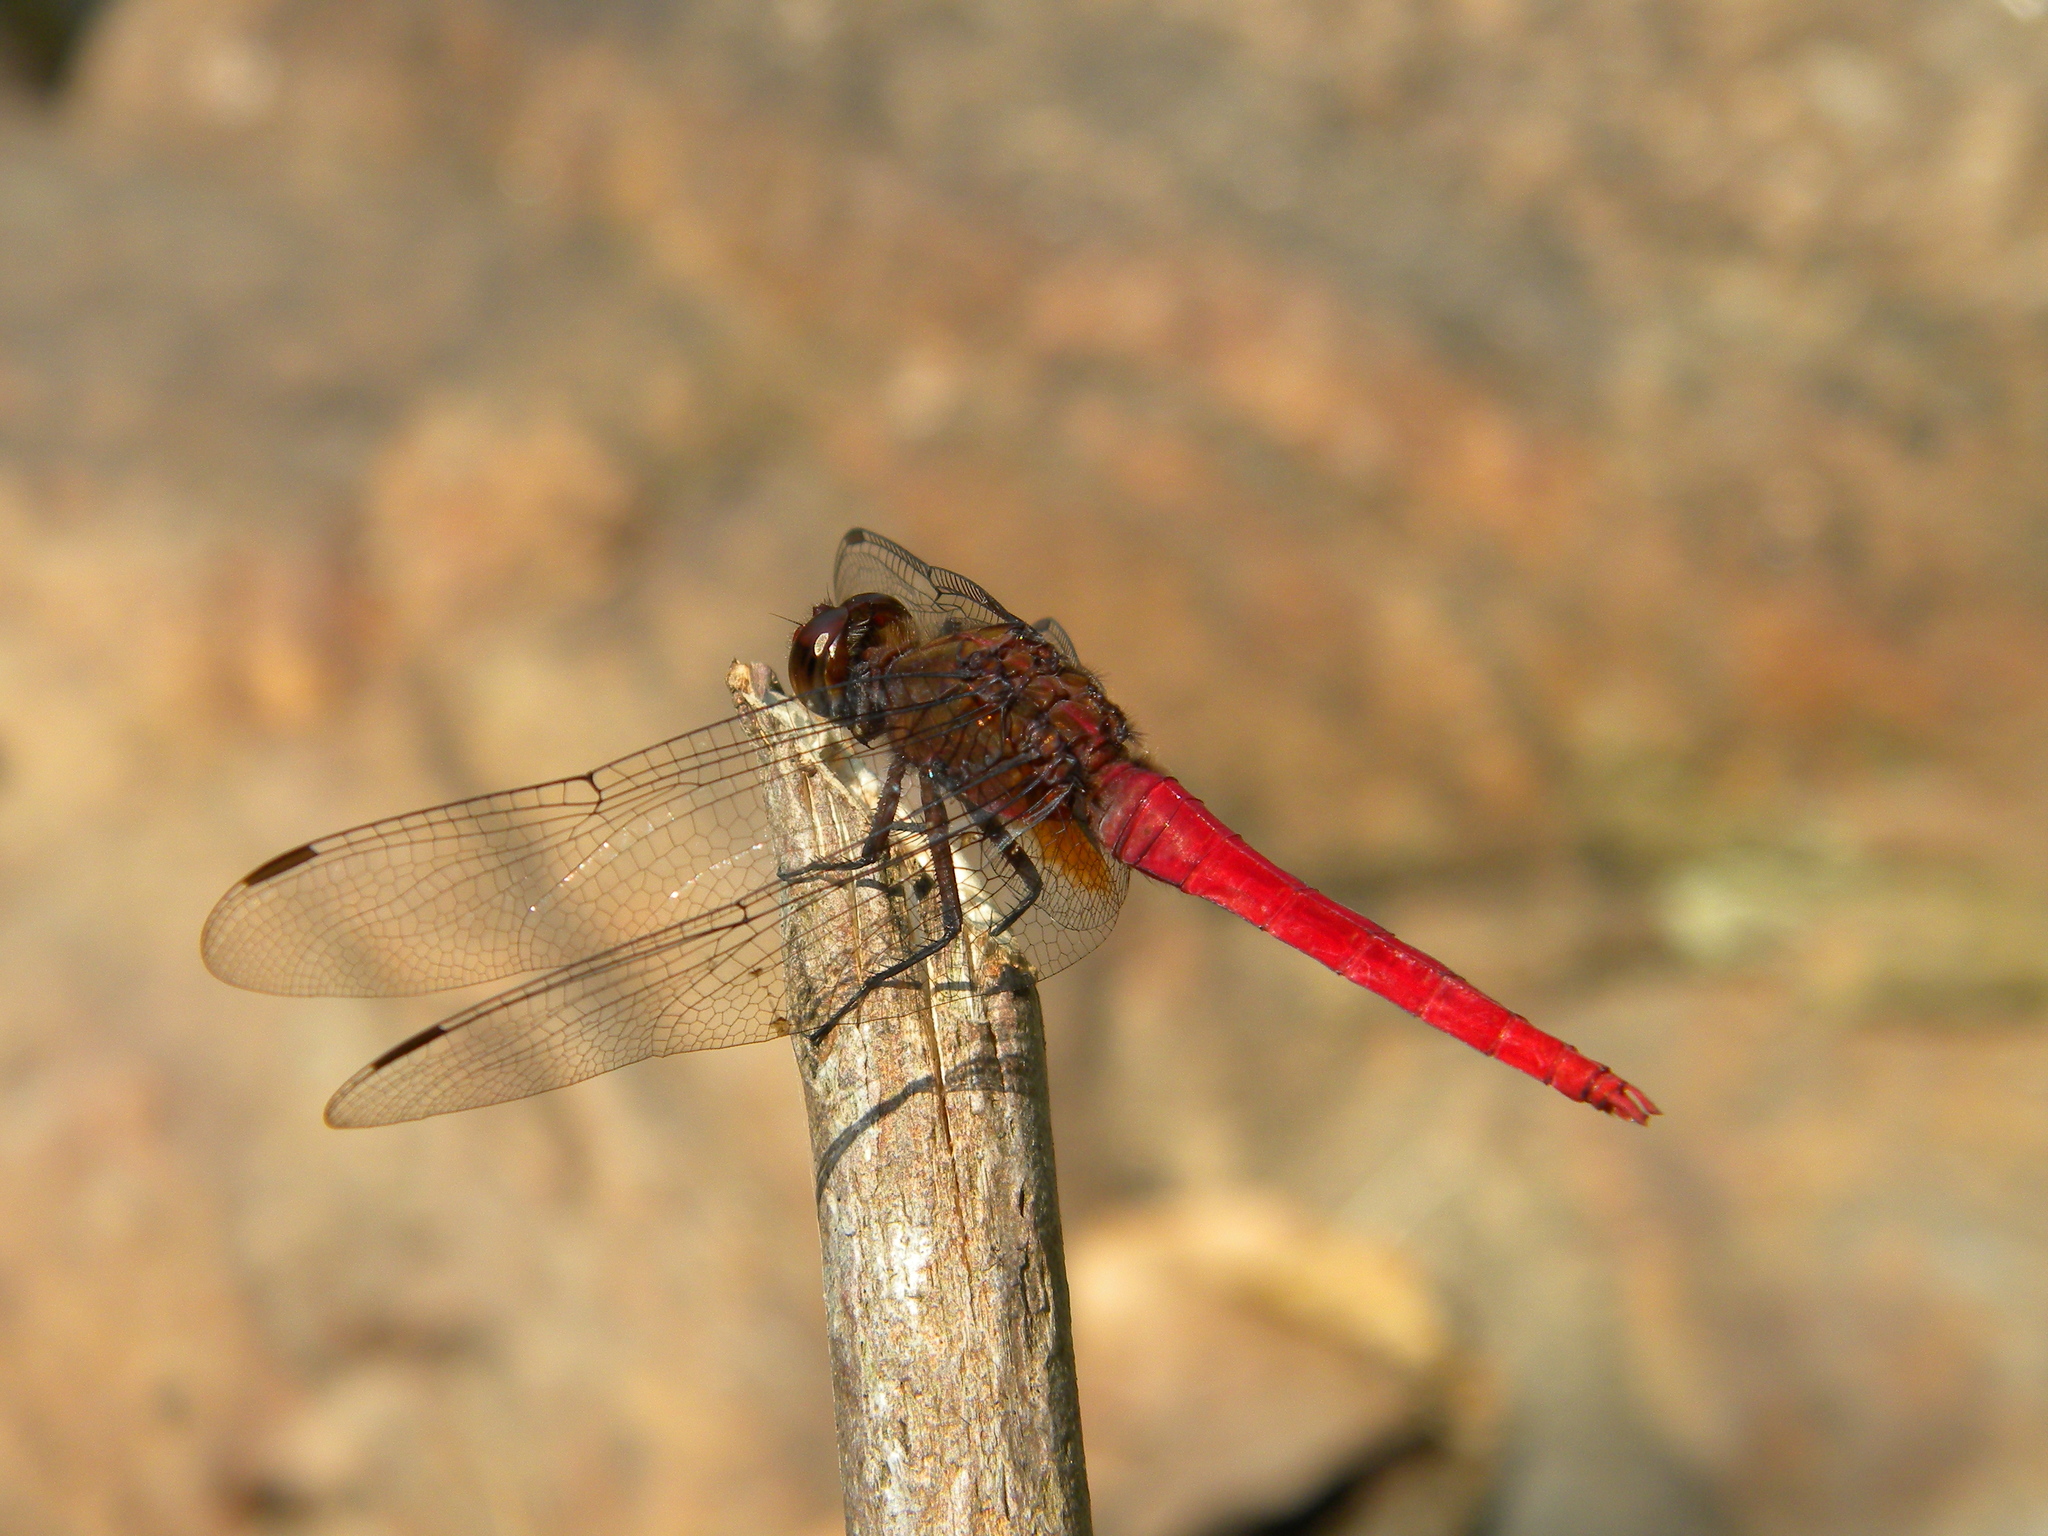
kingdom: Animalia
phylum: Arthropoda
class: Insecta
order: Odonata
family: Libellulidae
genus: Orthetrum
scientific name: Orthetrum chrysis
